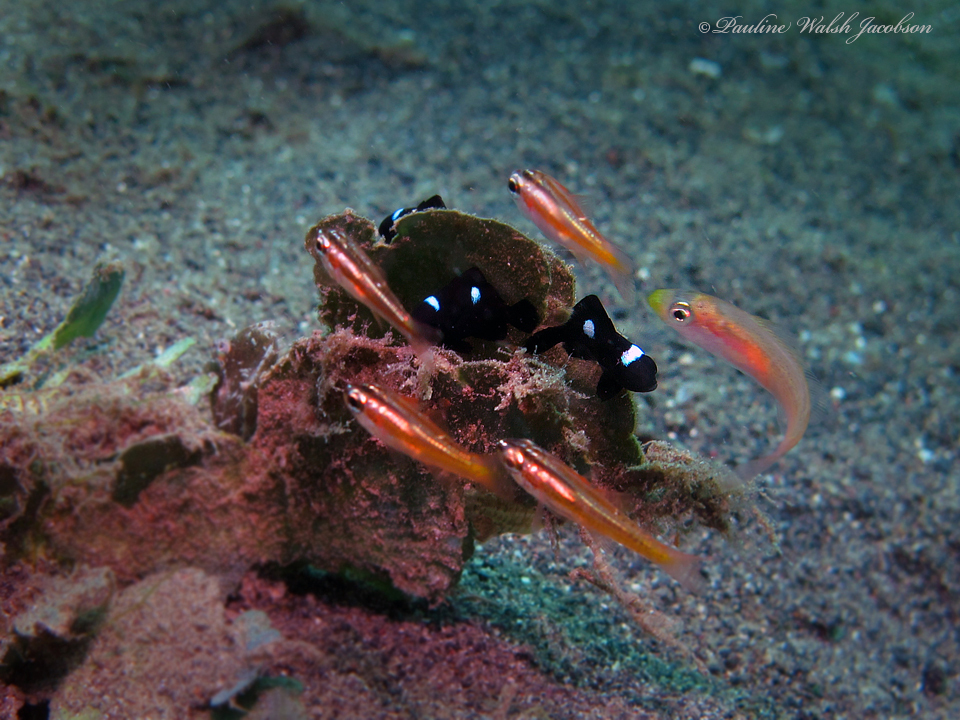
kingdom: Animalia
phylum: Chordata
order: Perciformes
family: Pomacentridae
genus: Dascyllus
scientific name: Dascyllus trimaculatus
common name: Threespot dascyllus
